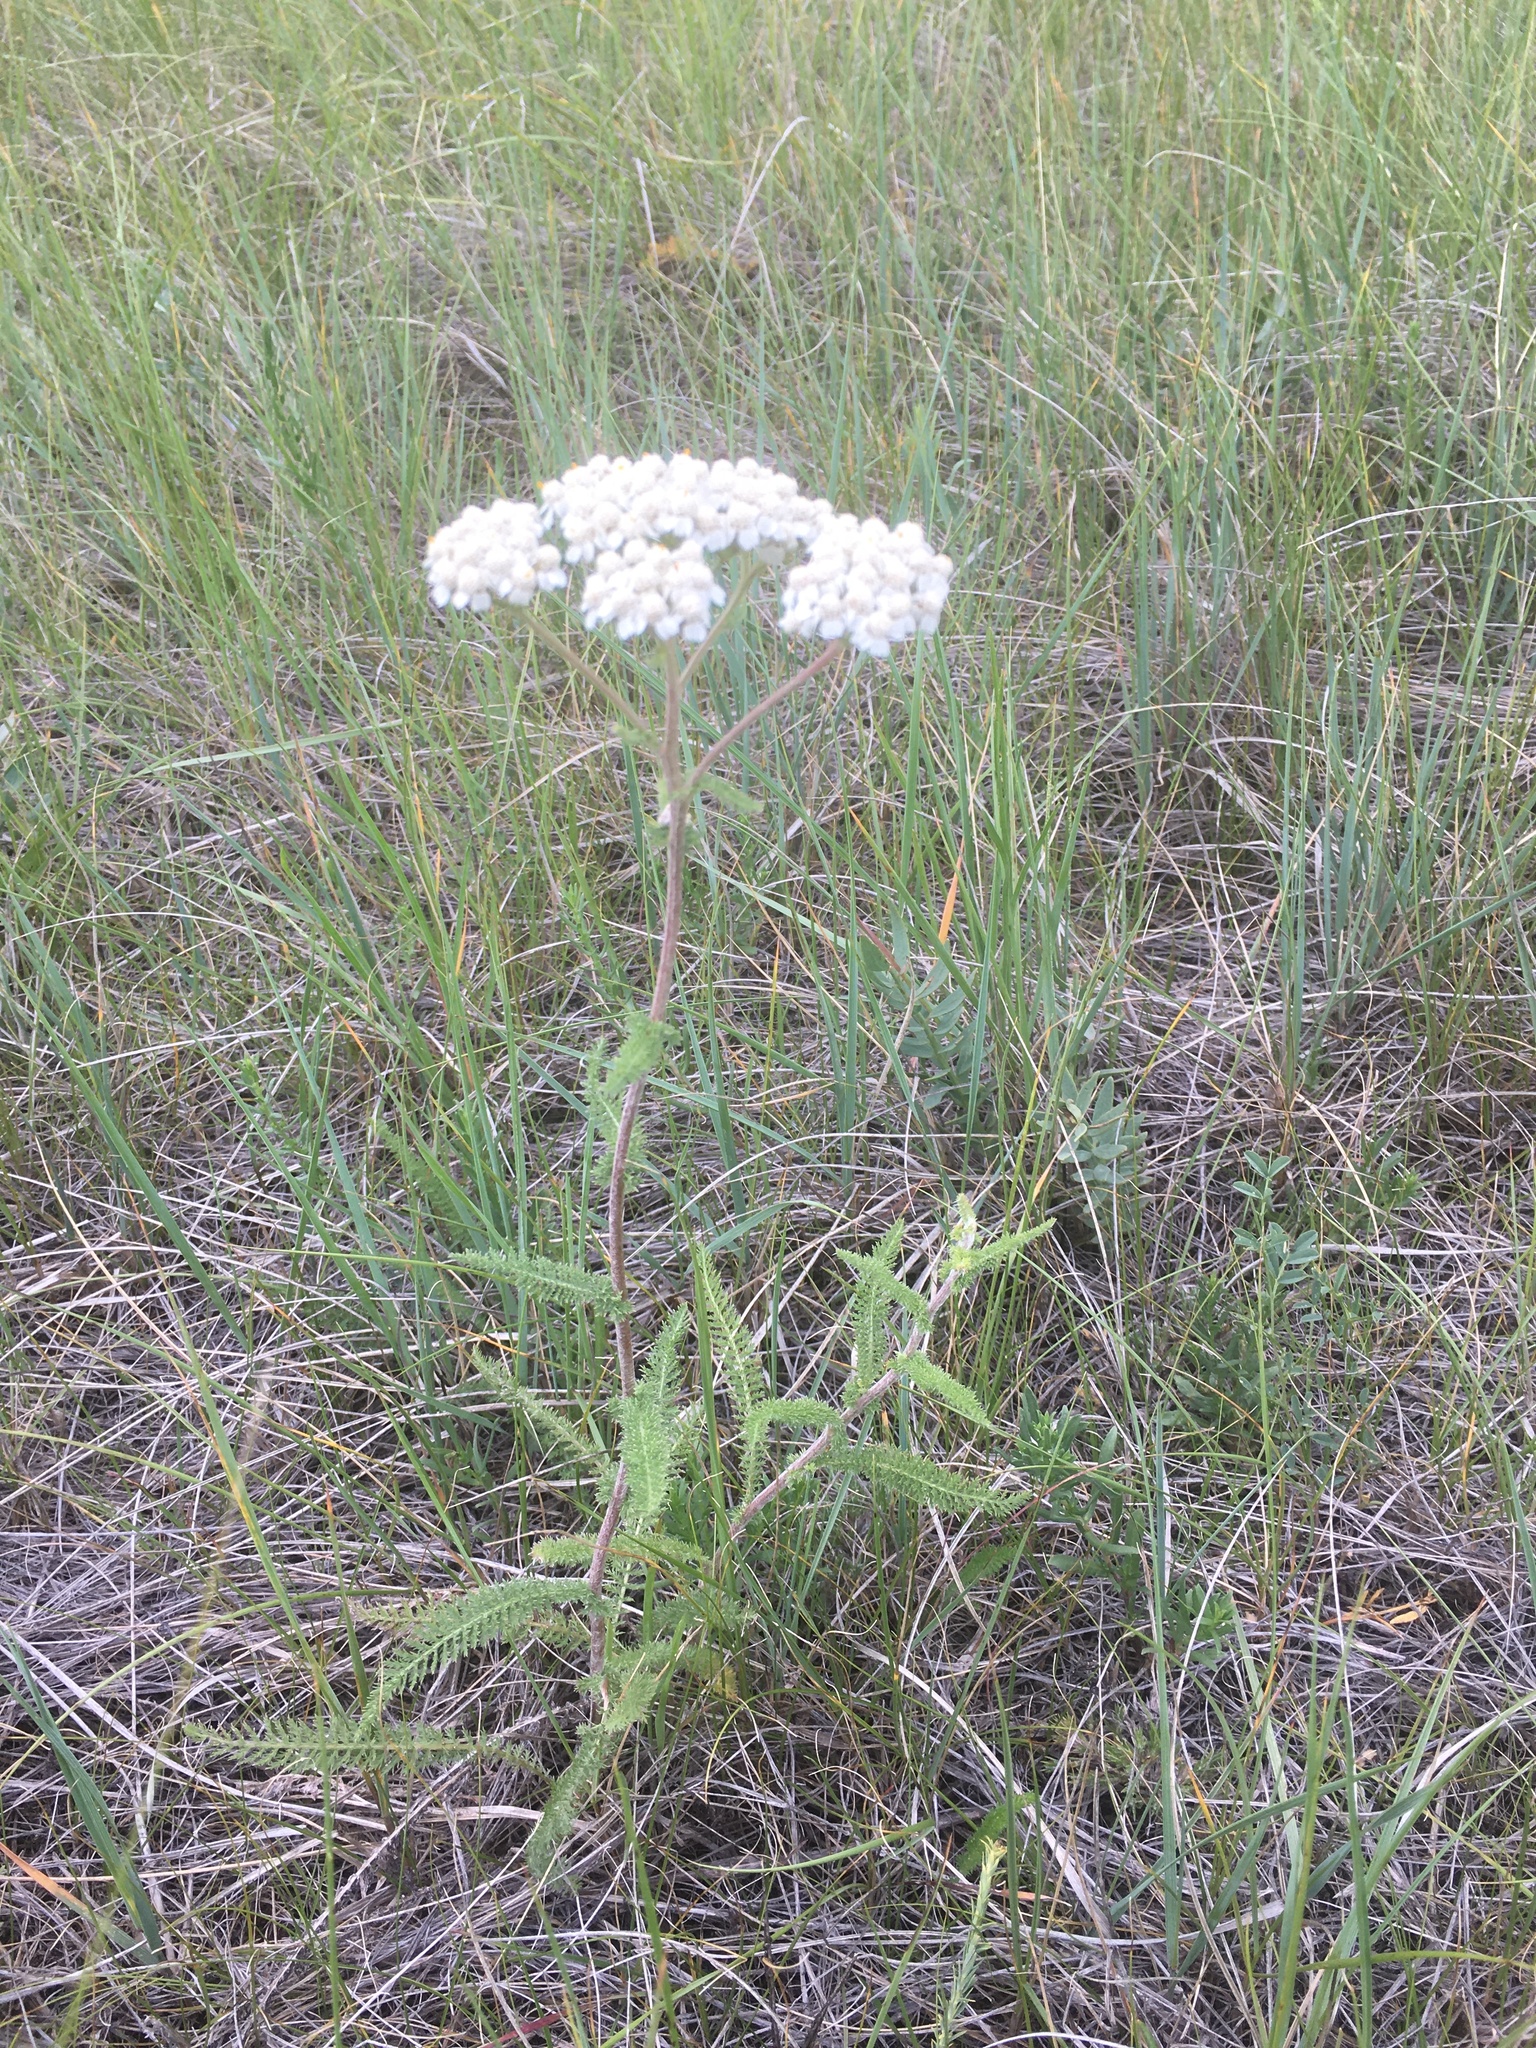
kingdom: Plantae
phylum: Tracheophyta
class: Magnoliopsida
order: Asterales
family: Asteraceae
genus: Achillea
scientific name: Achillea millefolium
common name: Yarrow
